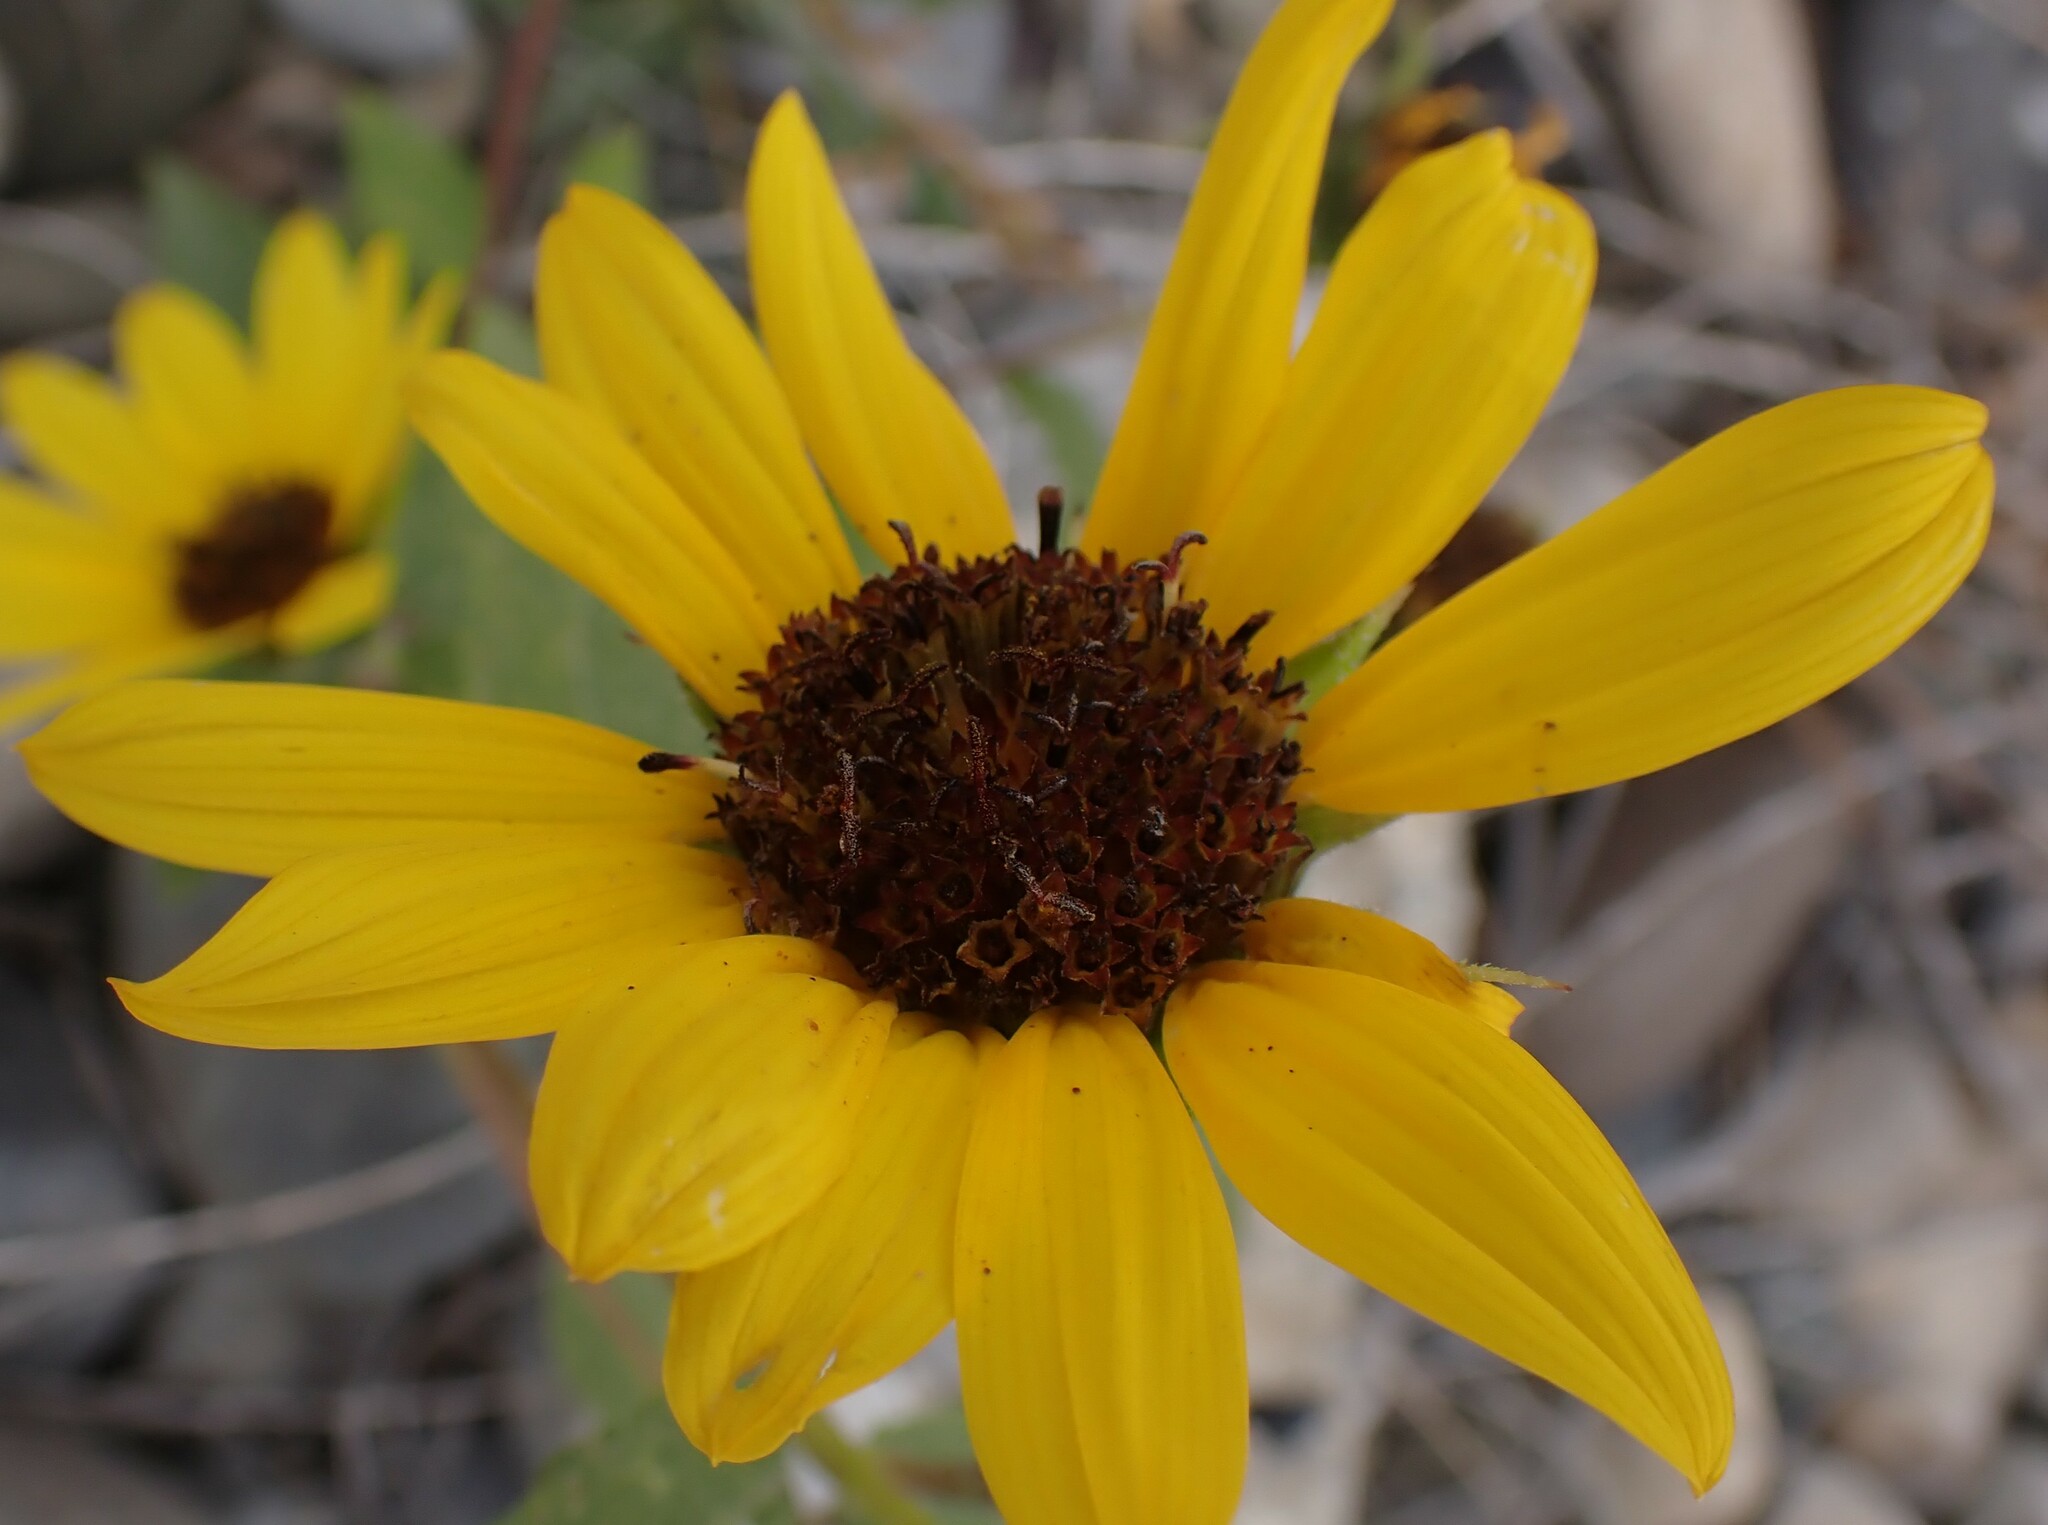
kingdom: Plantae
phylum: Tracheophyta
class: Magnoliopsida
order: Asterales
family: Asteraceae
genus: Helianthus
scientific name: Helianthus annuus
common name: Sunflower
